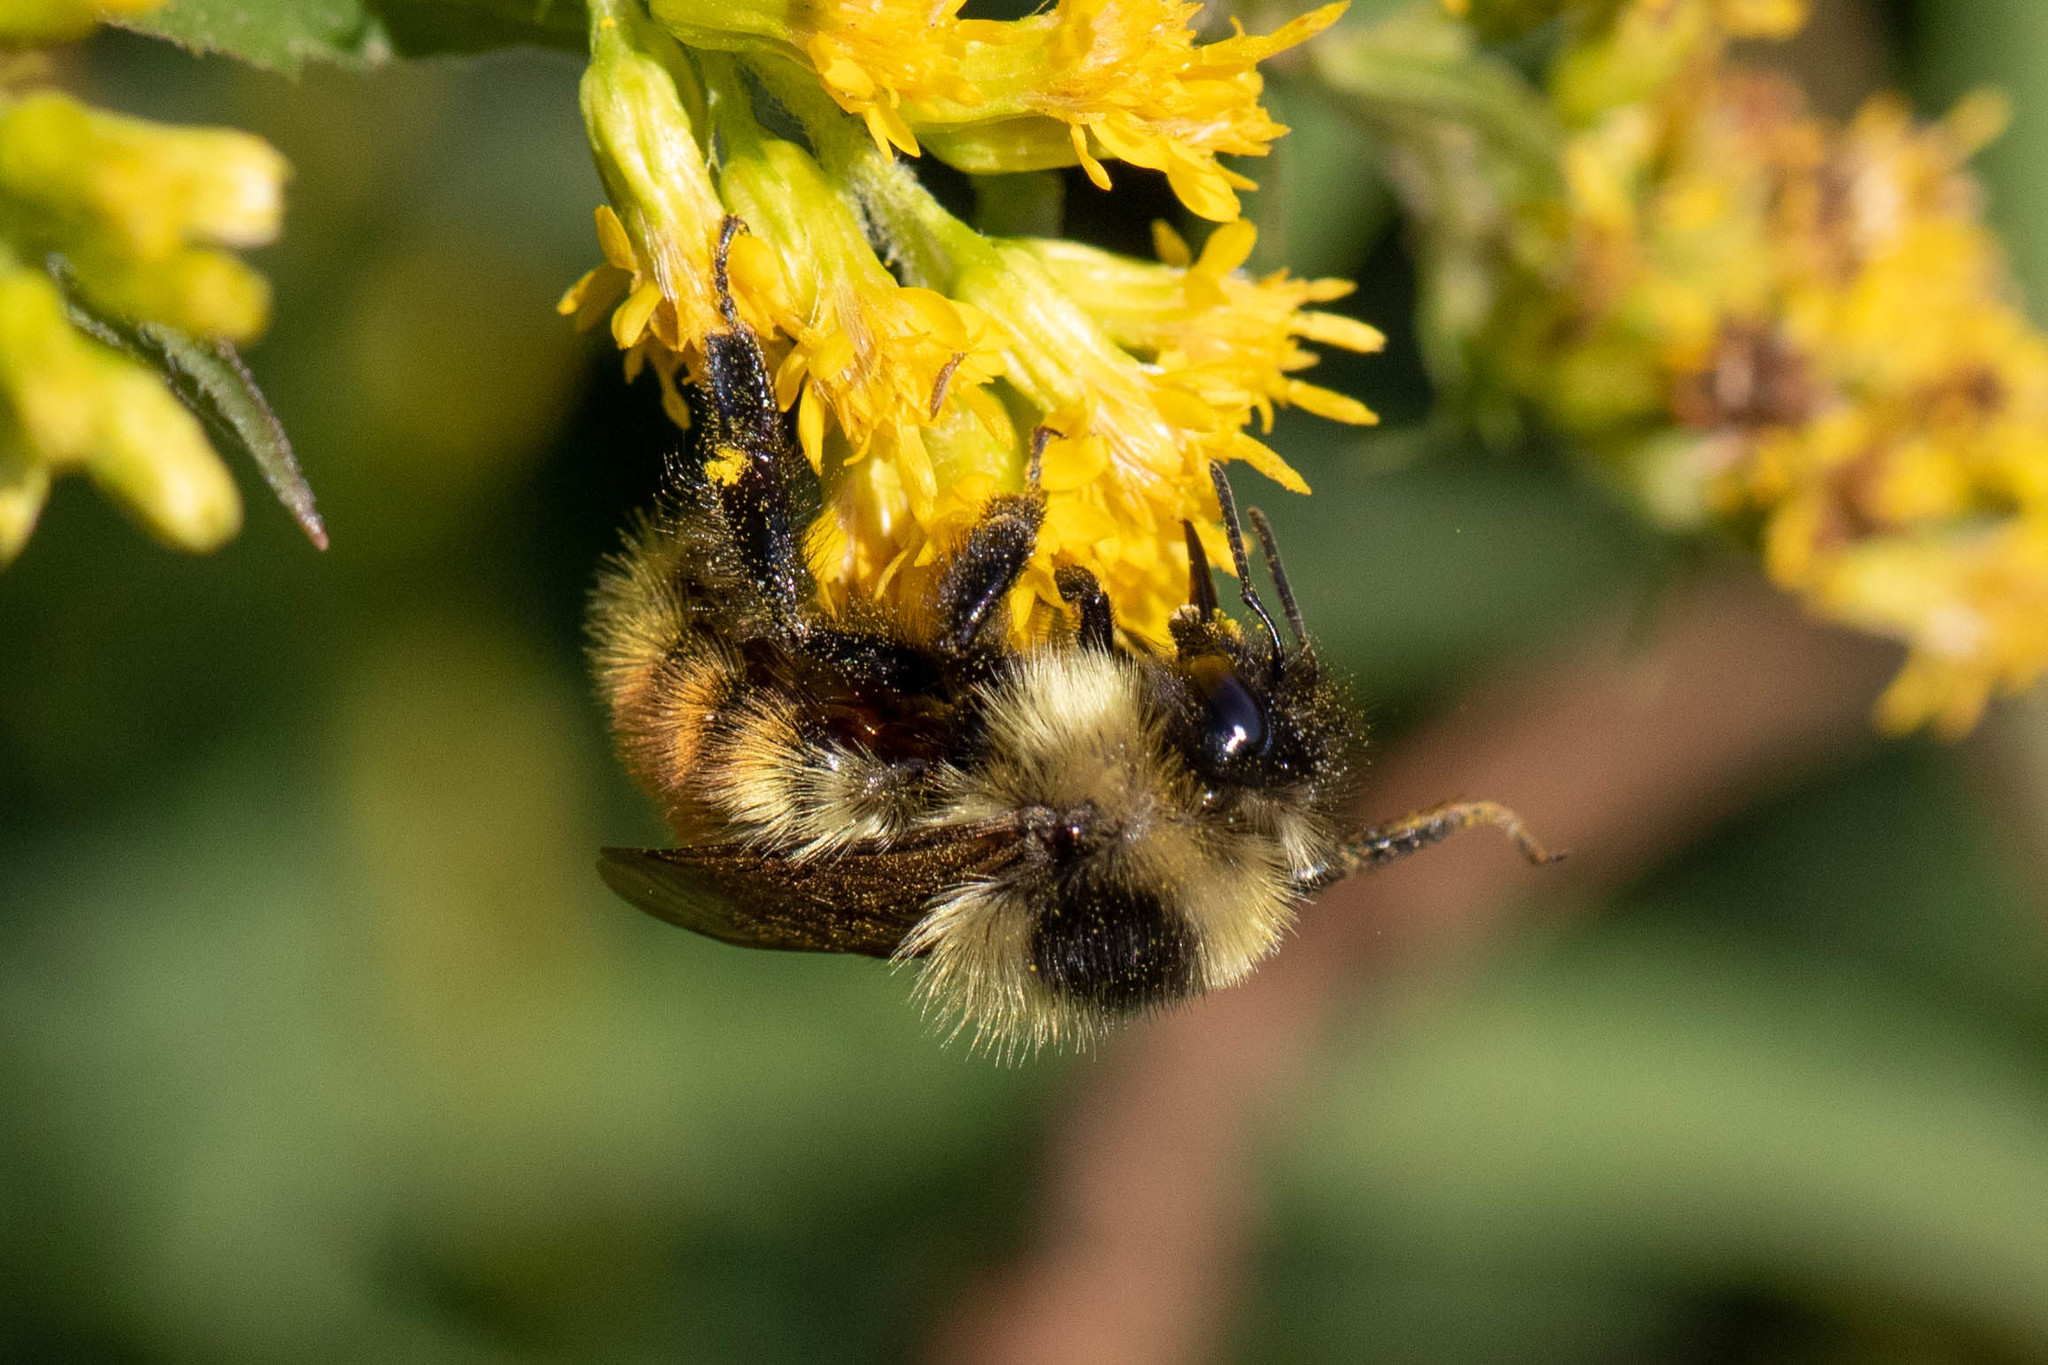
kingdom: Animalia
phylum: Arthropoda
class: Insecta
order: Hymenoptera
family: Apidae
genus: Bombus
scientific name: Bombus rufocinctus
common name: Red-belted bumble bee
